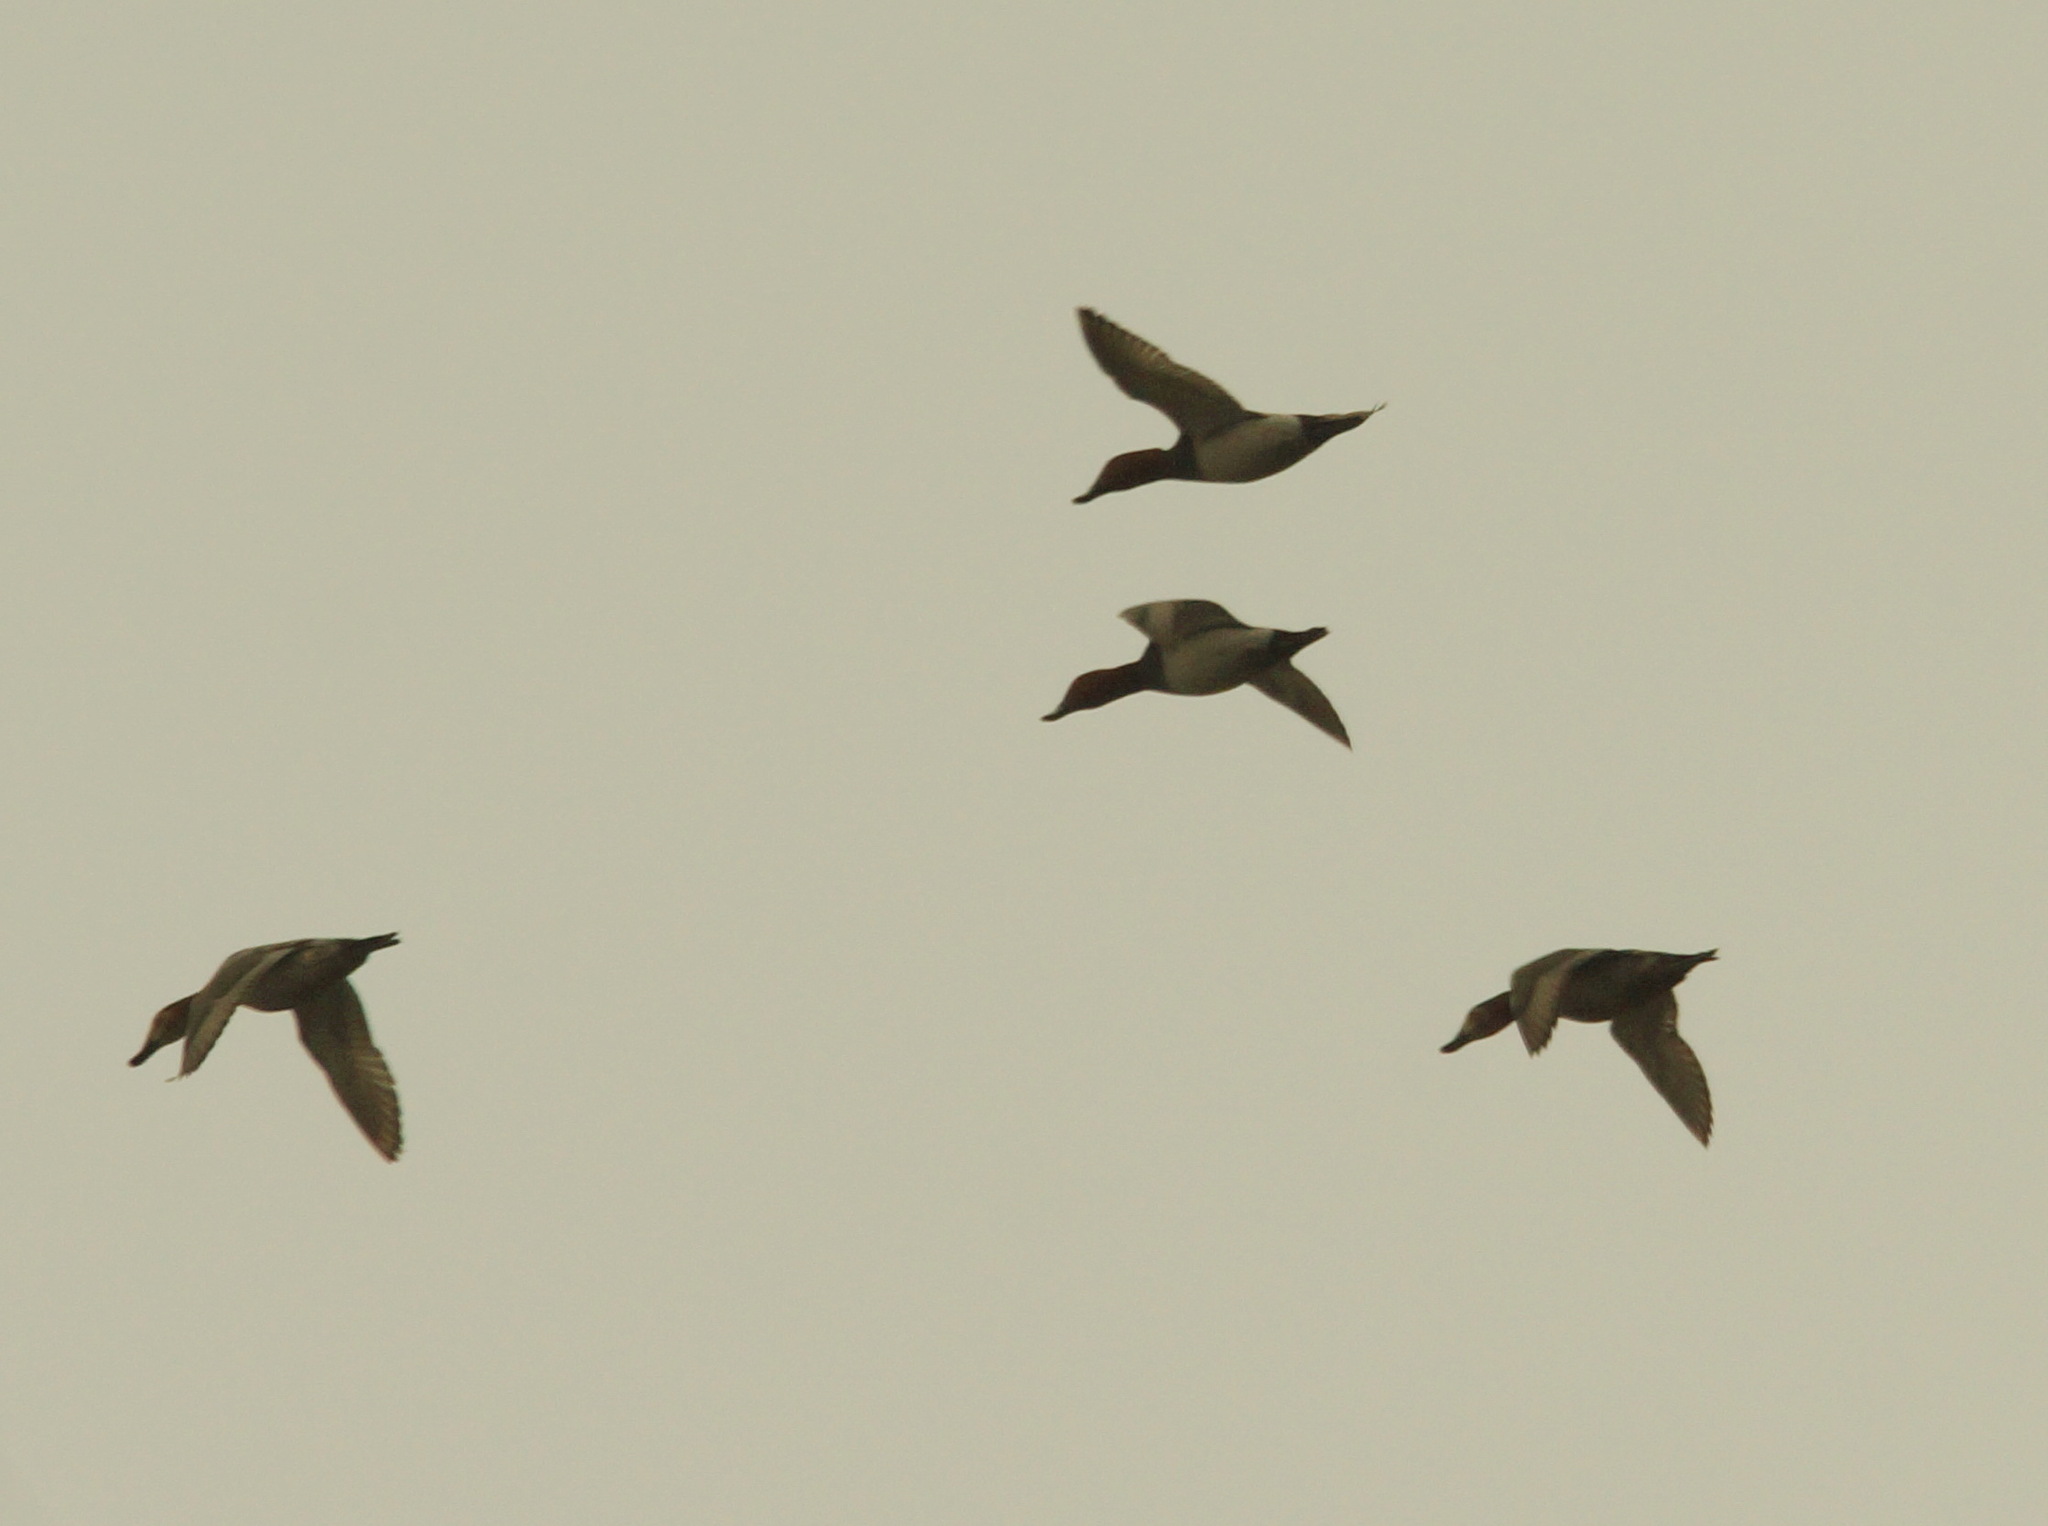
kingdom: Animalia
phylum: Chordata
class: Aves
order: Anseriformes
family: Anatidae
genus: Aythya
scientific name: Aythya ferina
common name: Common pochard
